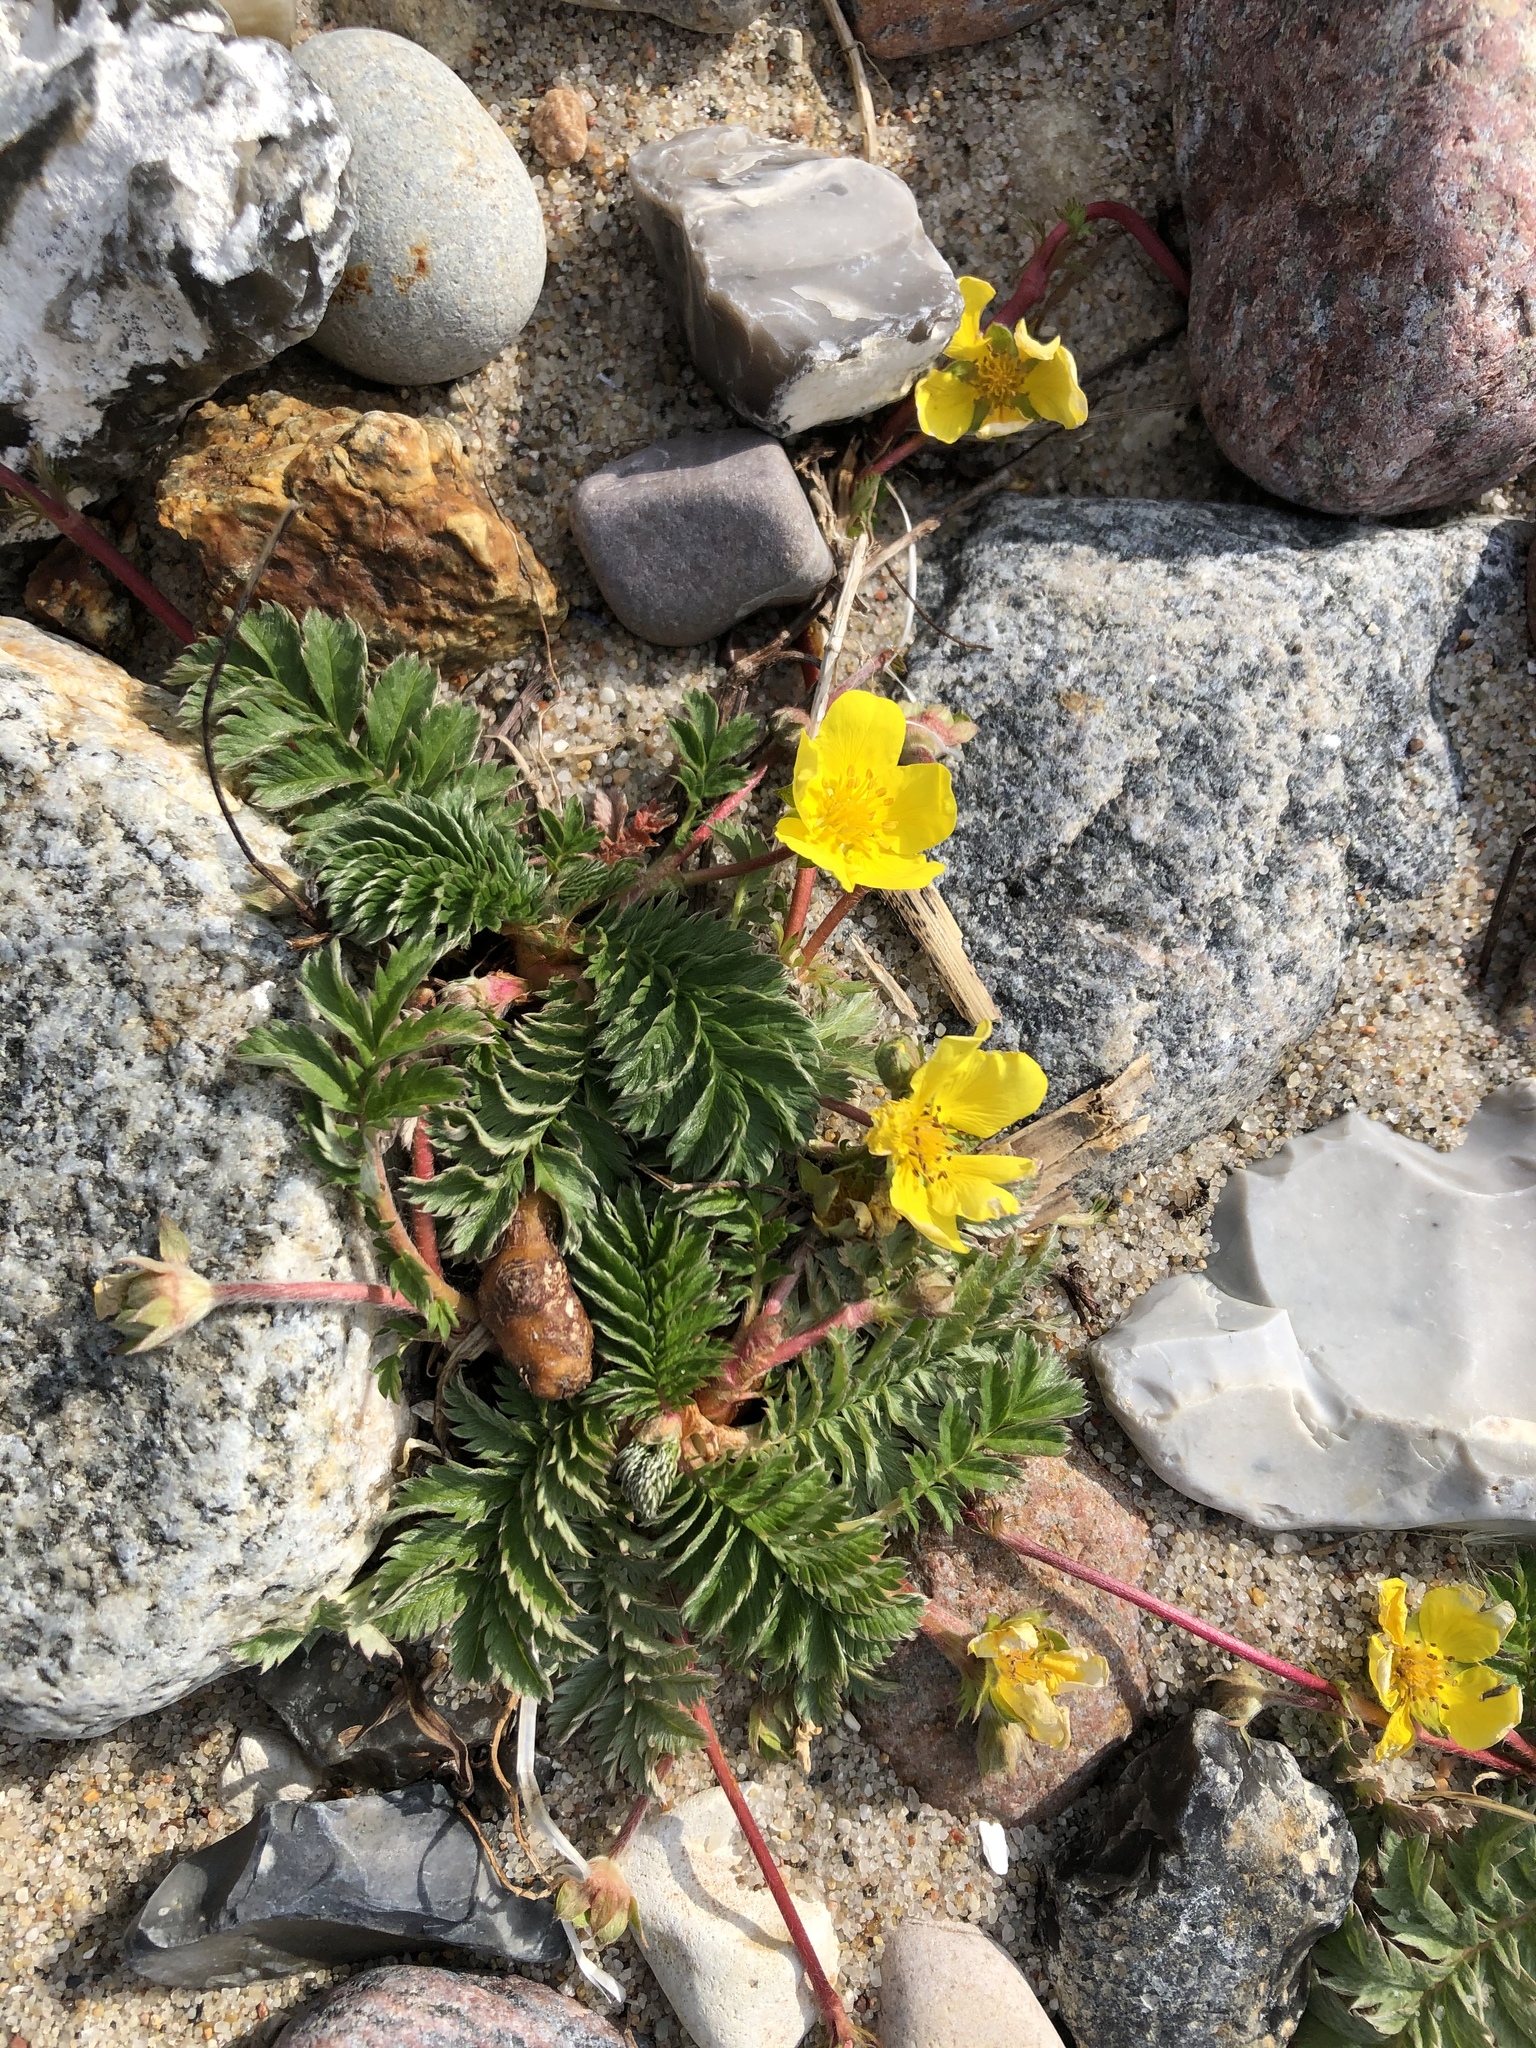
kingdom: Plantae
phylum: Tracheophyta
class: Magnoliopsida
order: Rosales
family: Rosaceae
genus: Argentina
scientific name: Argentina anserina
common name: Common silverweed
